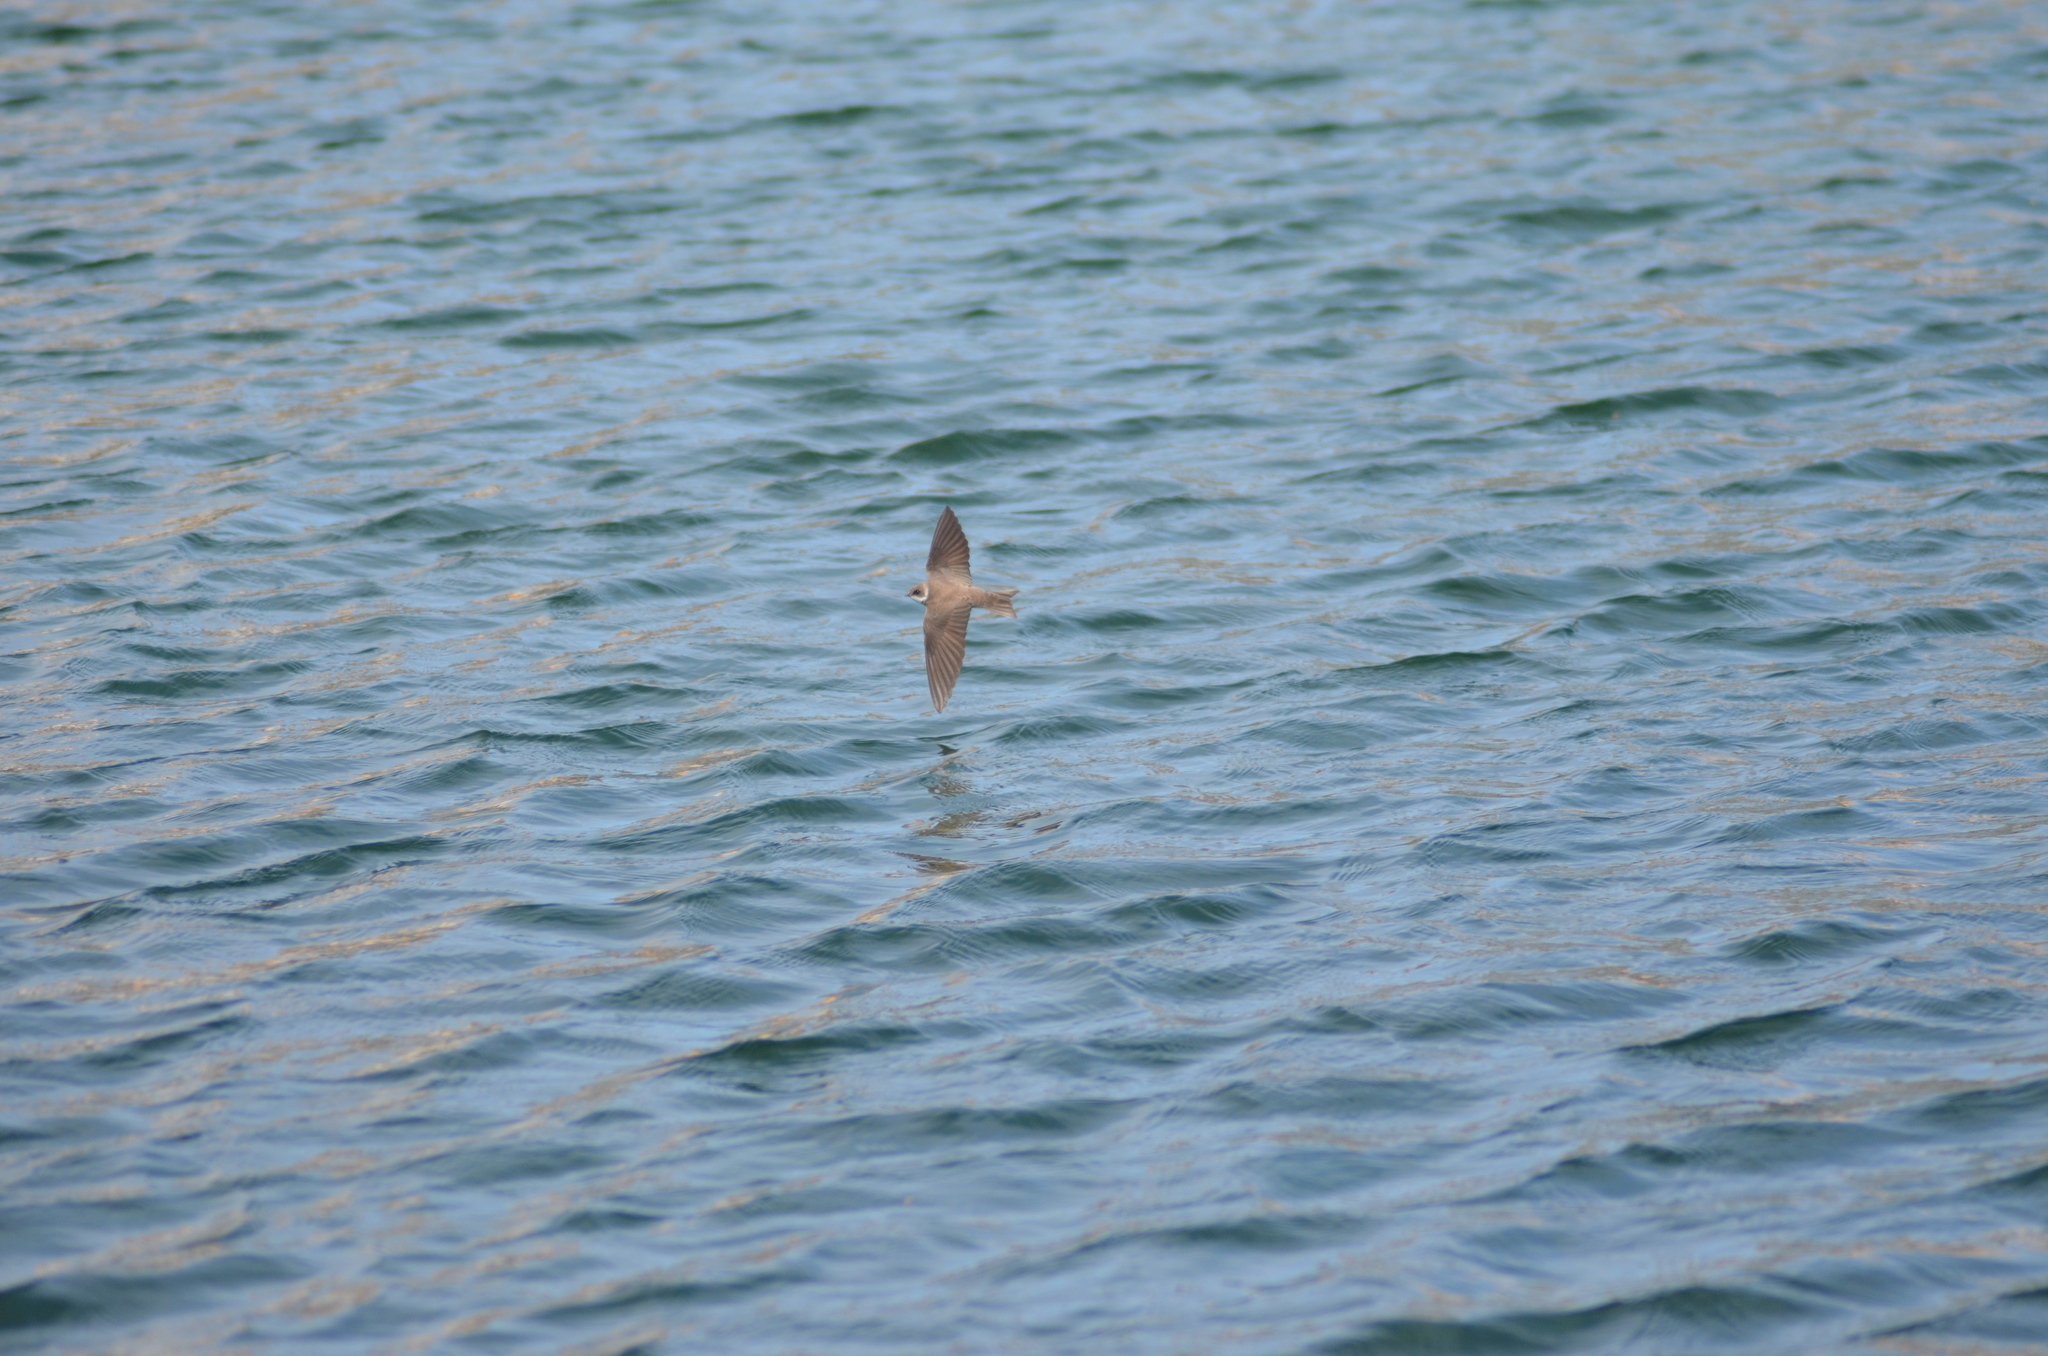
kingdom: Animalia
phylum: Chordata
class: Aves
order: Passeriformes
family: Hirundinidae
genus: Riparia
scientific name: Riparia riparia
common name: Sand martin
